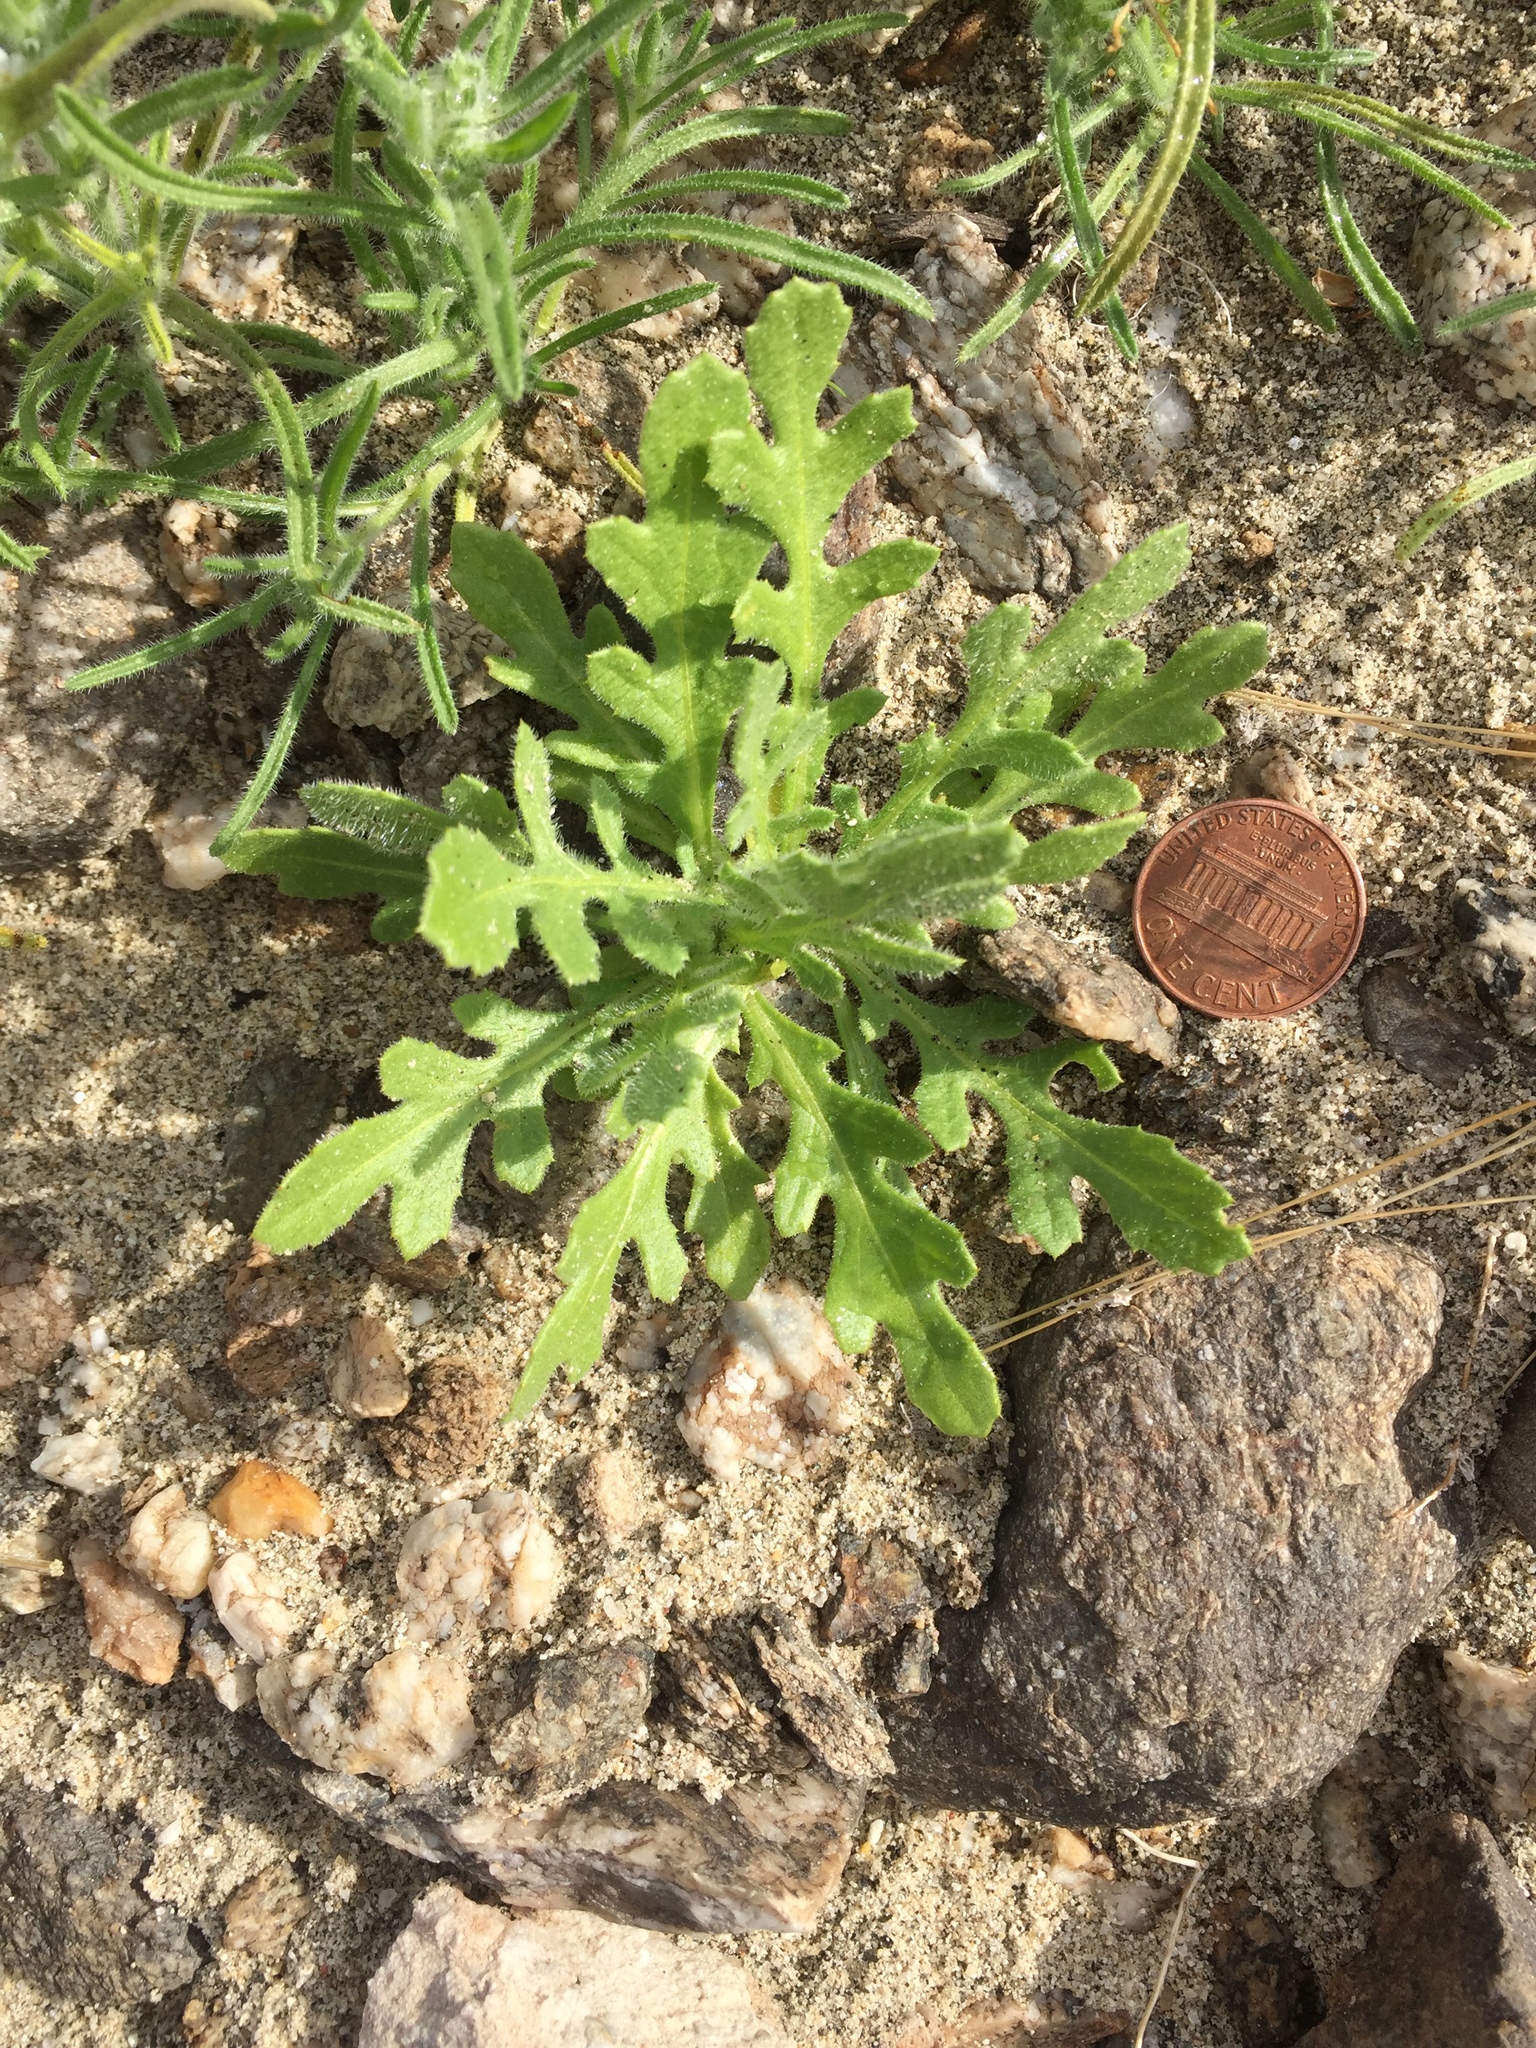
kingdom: Plantae
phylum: Tracheophyta
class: Magnoliopsida
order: Asterales
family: Asteraceae
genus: Volutaria
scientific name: Volutaria tubuliflora
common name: Desert knapweed
